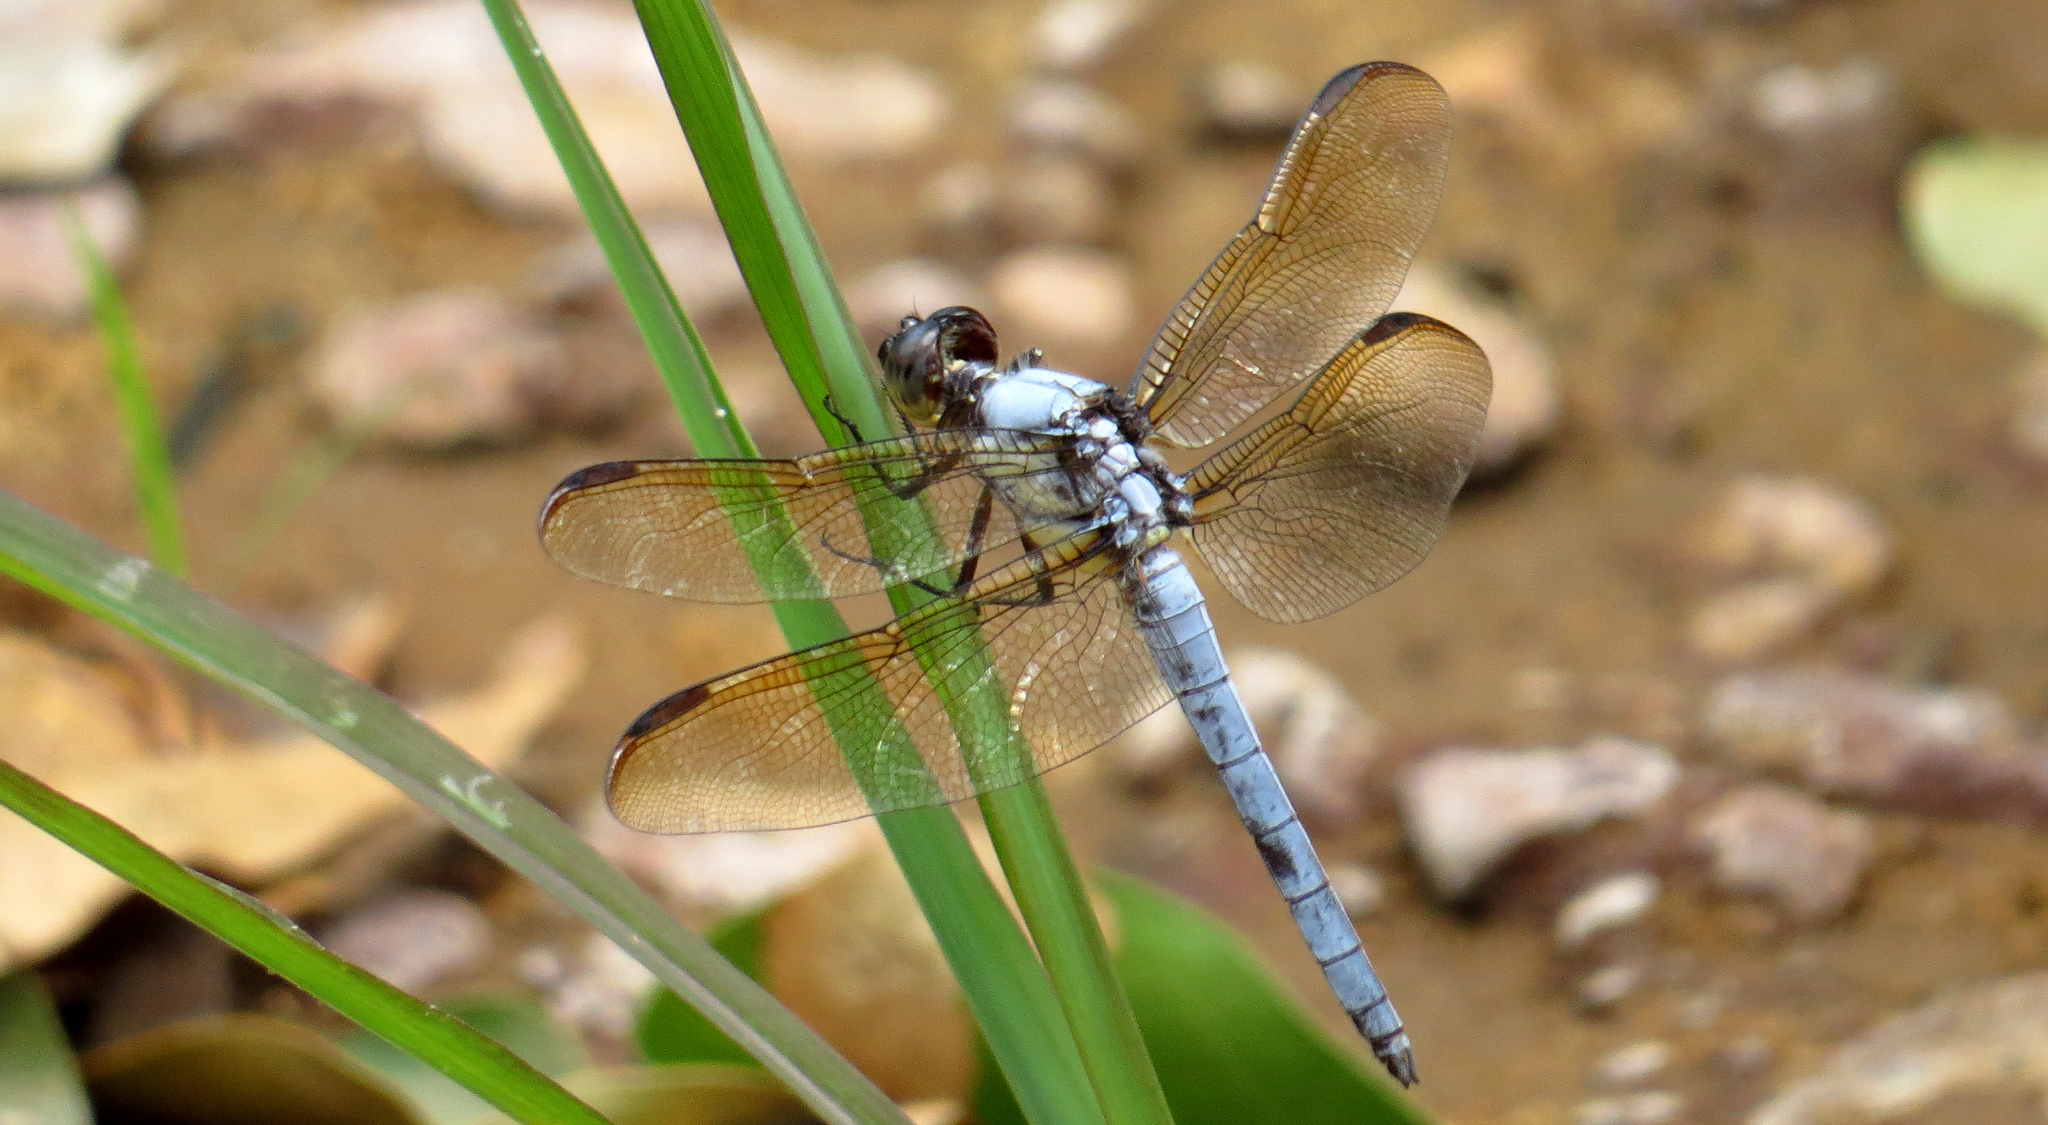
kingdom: Animalia
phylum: Arthropoda
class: Insecta
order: Odonata
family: Libellulidae
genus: Libellula
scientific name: Libellula flavida
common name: Yellow-sided skimmer
